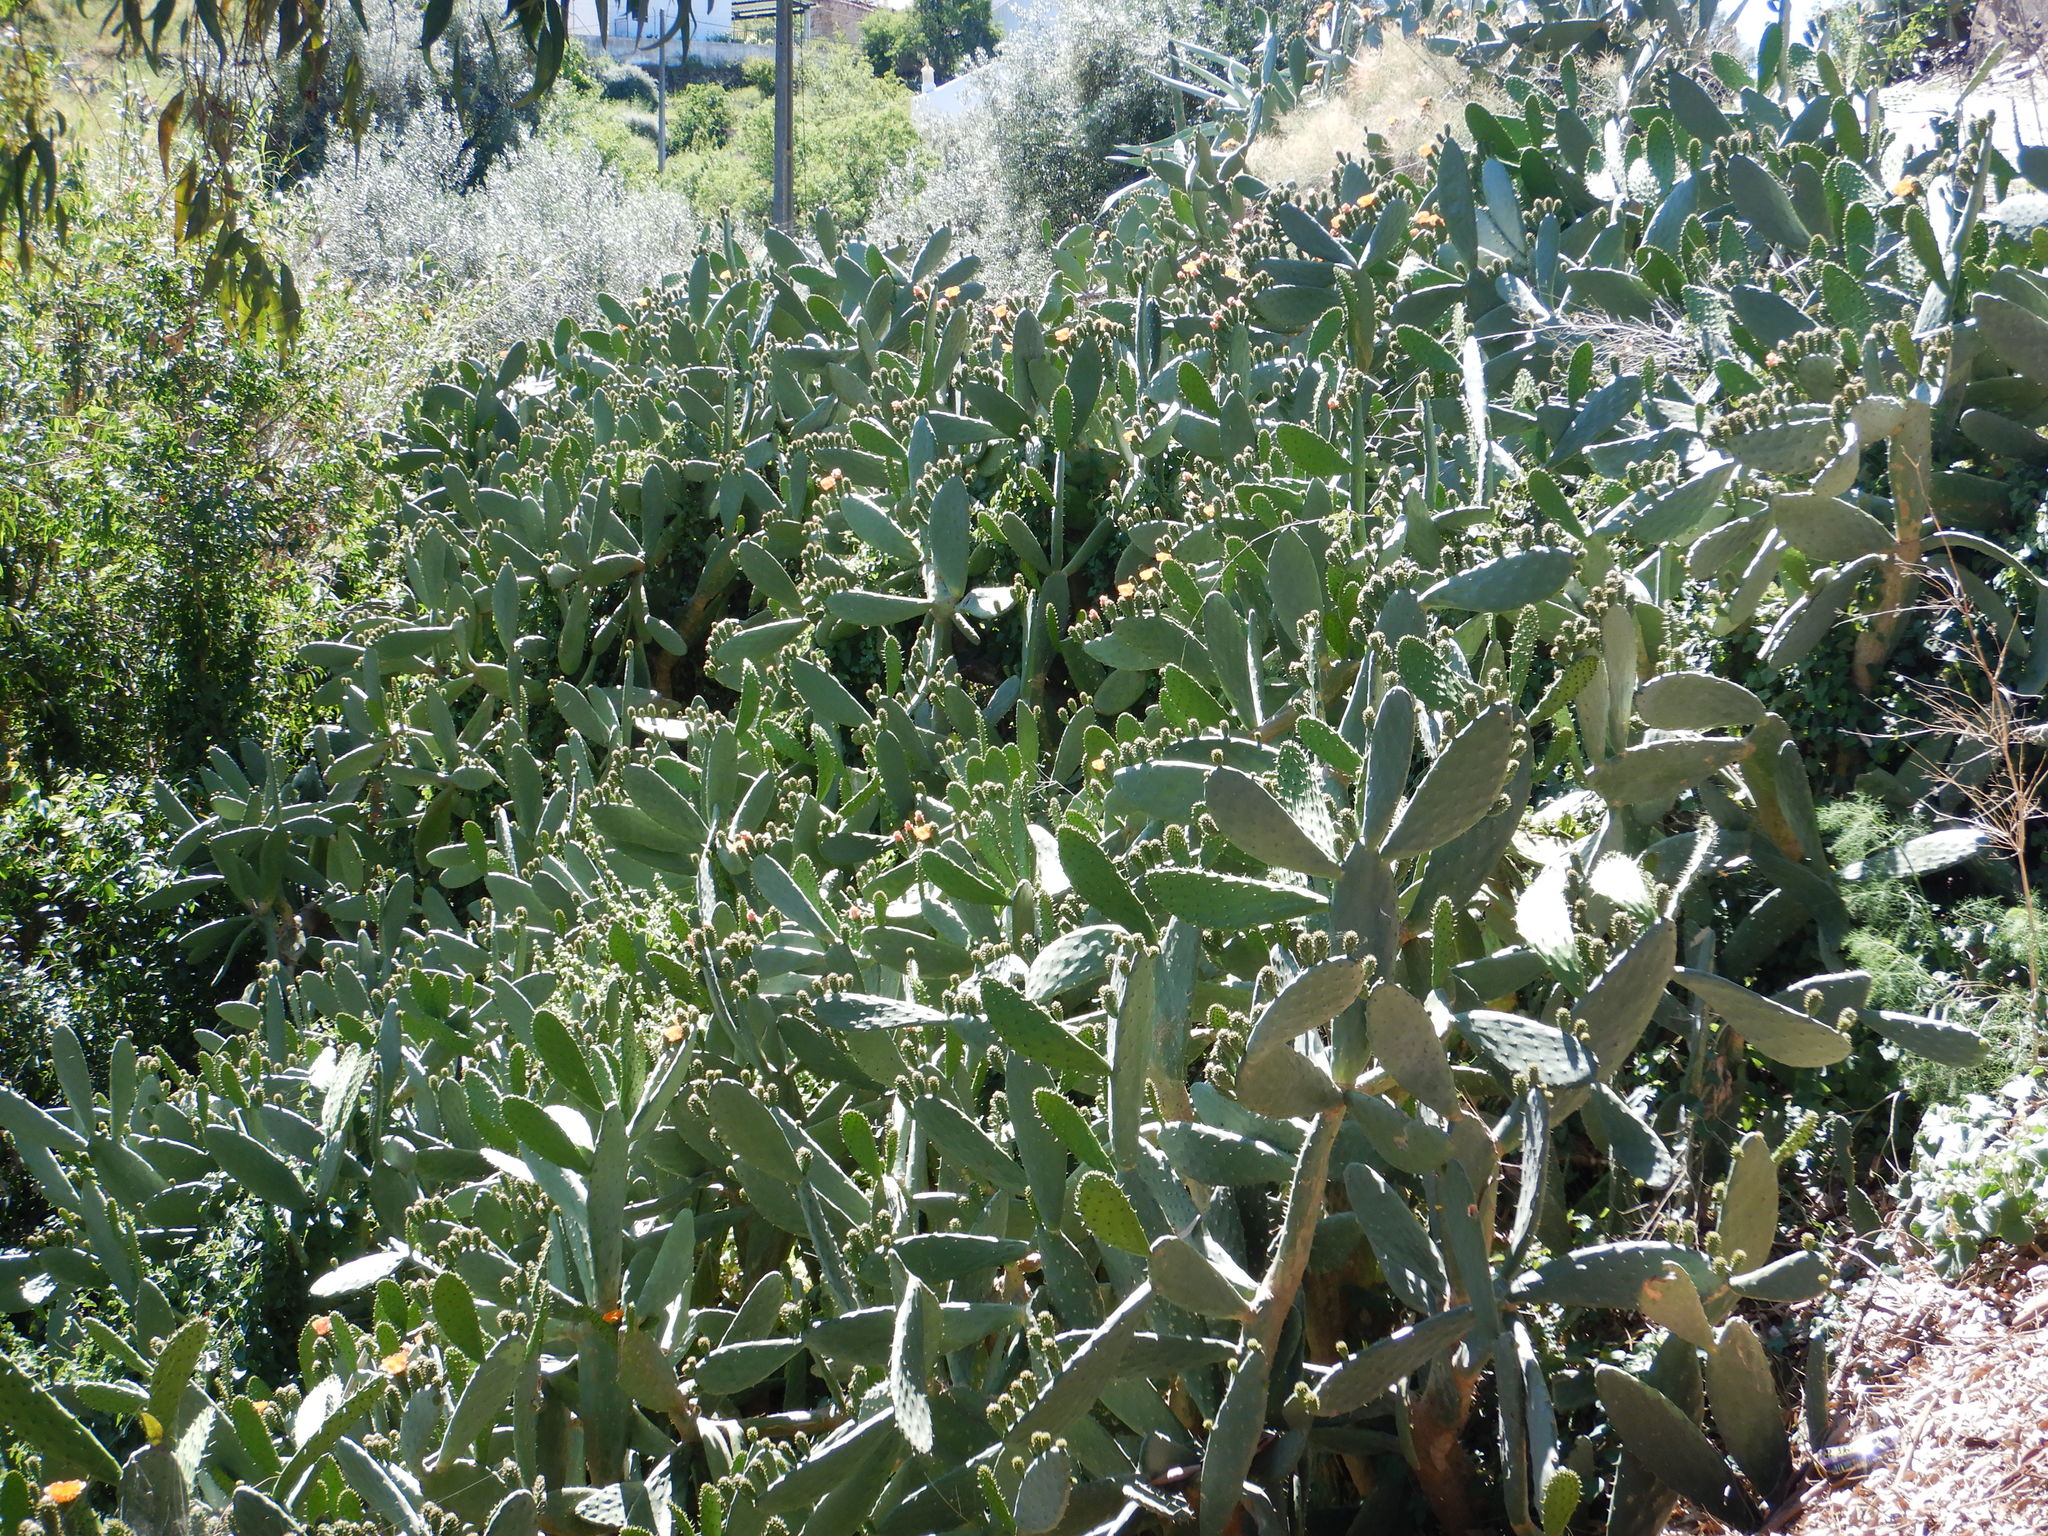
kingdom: Plantae
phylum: Tracheophyta
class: Magnoliopsida
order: Caryophyllales
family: Cactaceae
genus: Opuntia
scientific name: Opuntia ficus-indica
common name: Barbary fig
